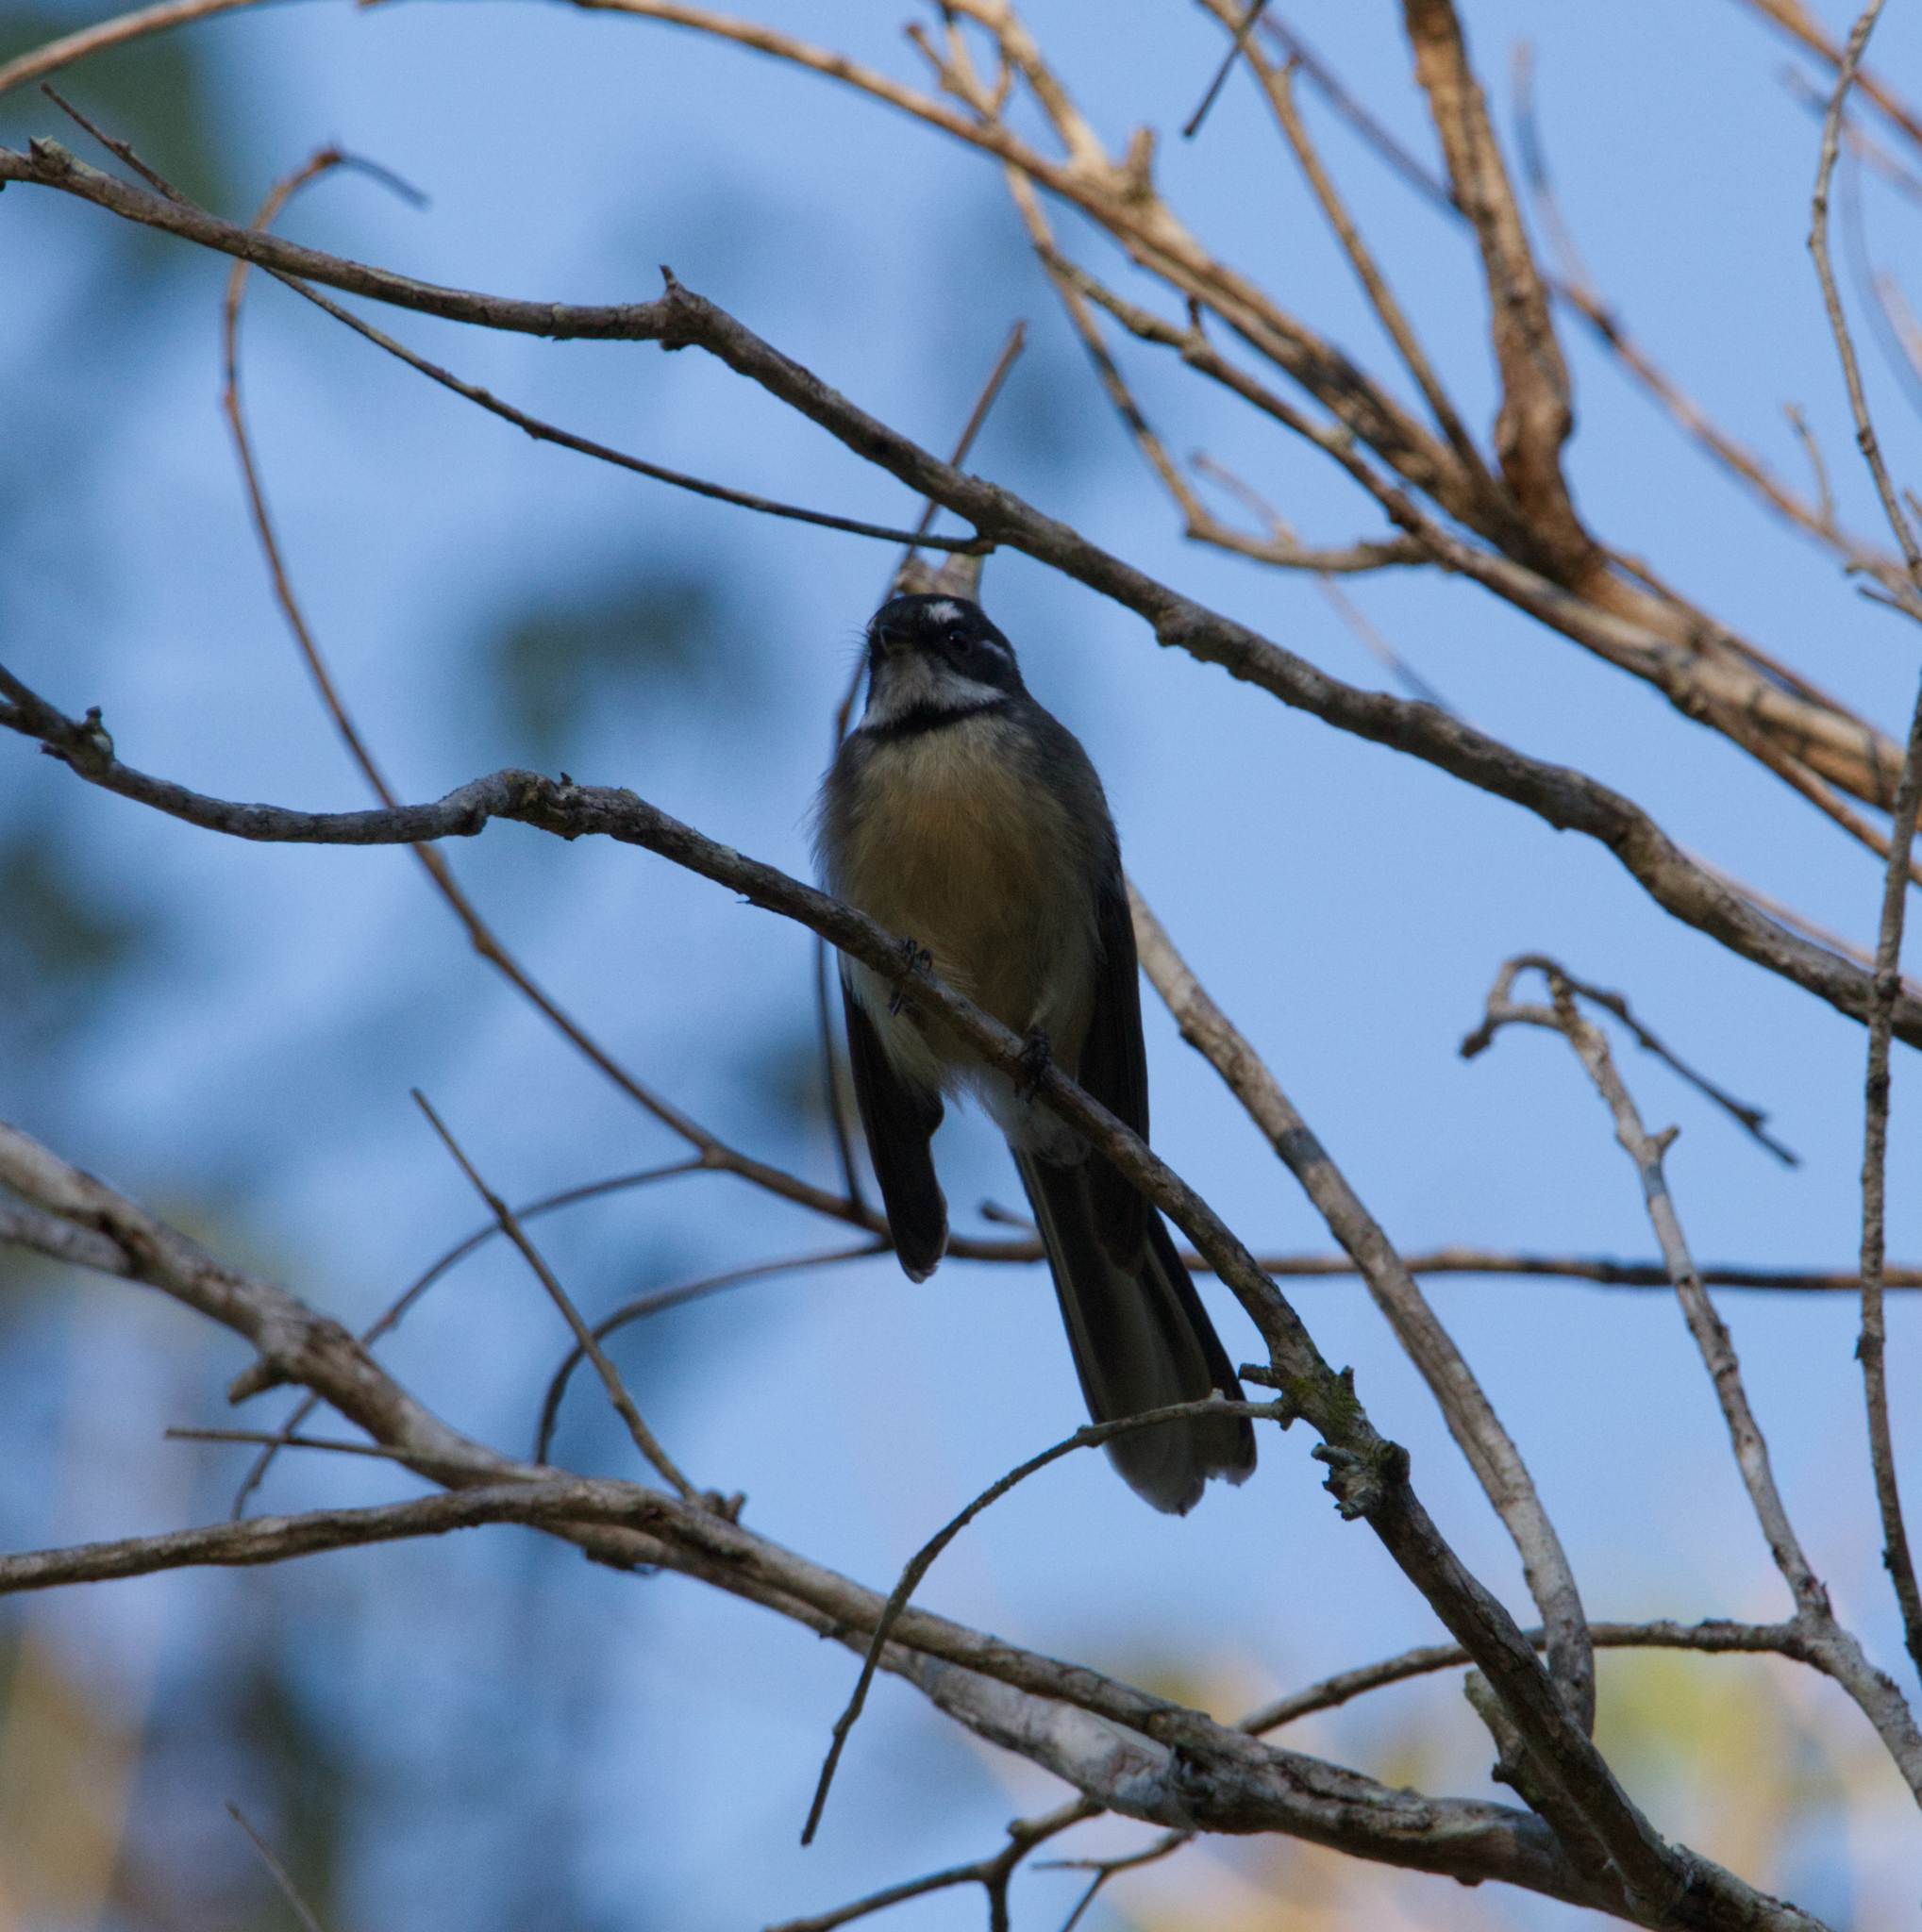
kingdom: Animalia
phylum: Chordata
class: Aves
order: Passeriformes
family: Rhipiduridae
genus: Rhipidura
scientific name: Rhipidura albiscapa
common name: Grey fantail
